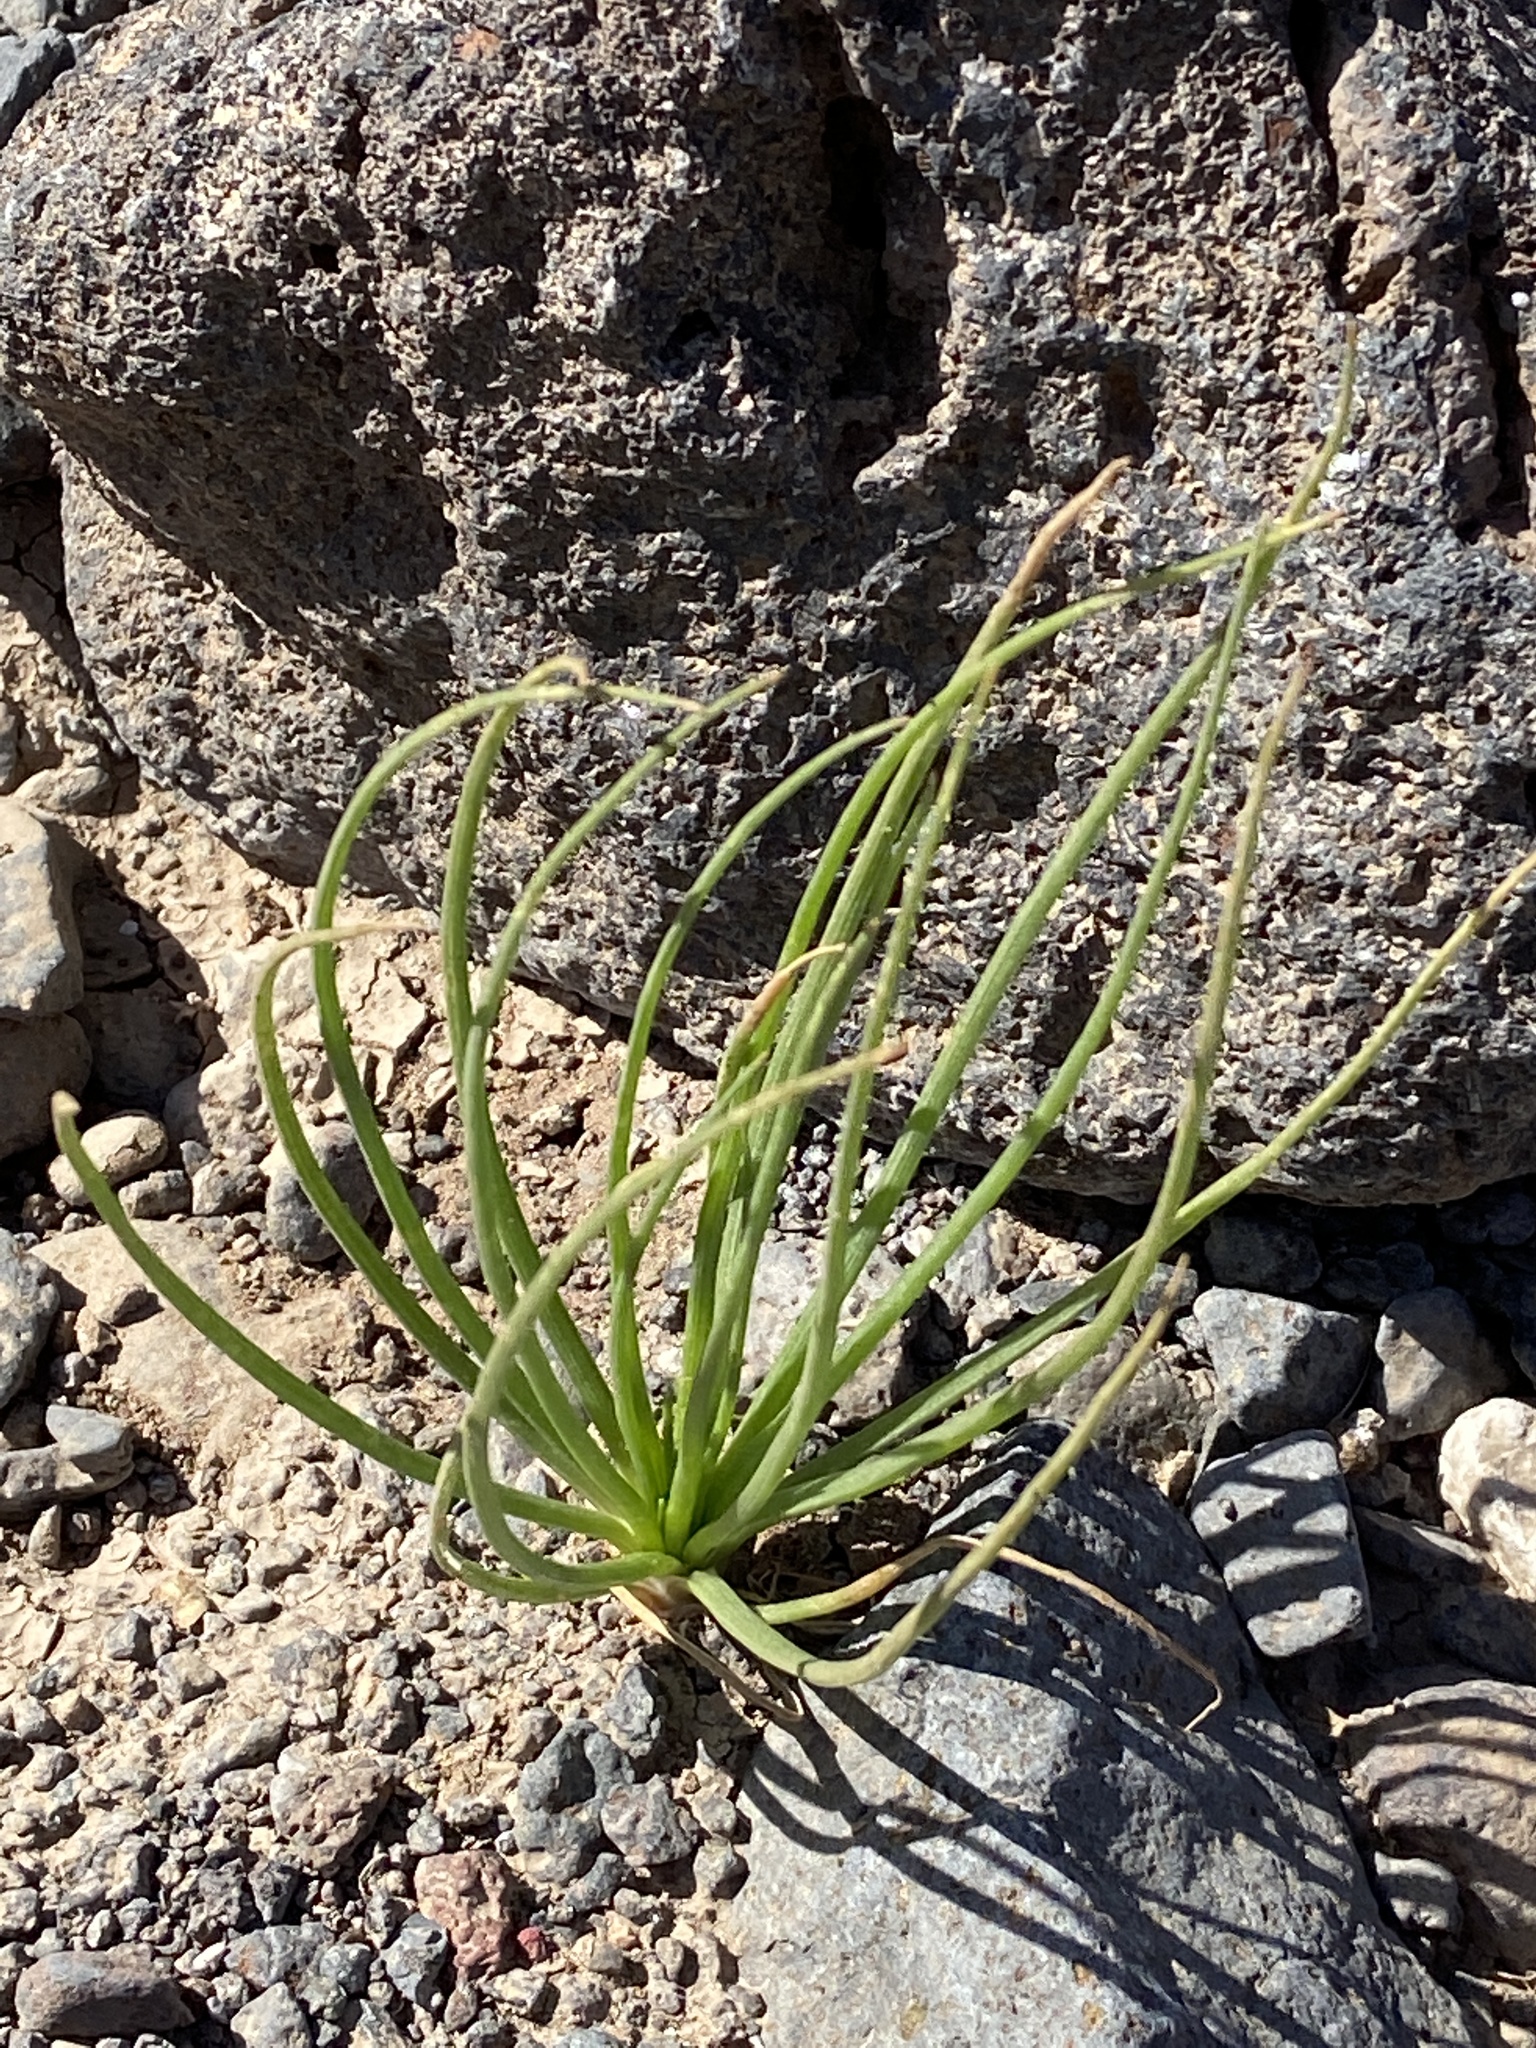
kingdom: Plantae
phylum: Tracheophyta
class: Liliopsida
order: Asparagales
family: Asphodelaceae
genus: Asphodelus
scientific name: Asphodelus tenuifolius
